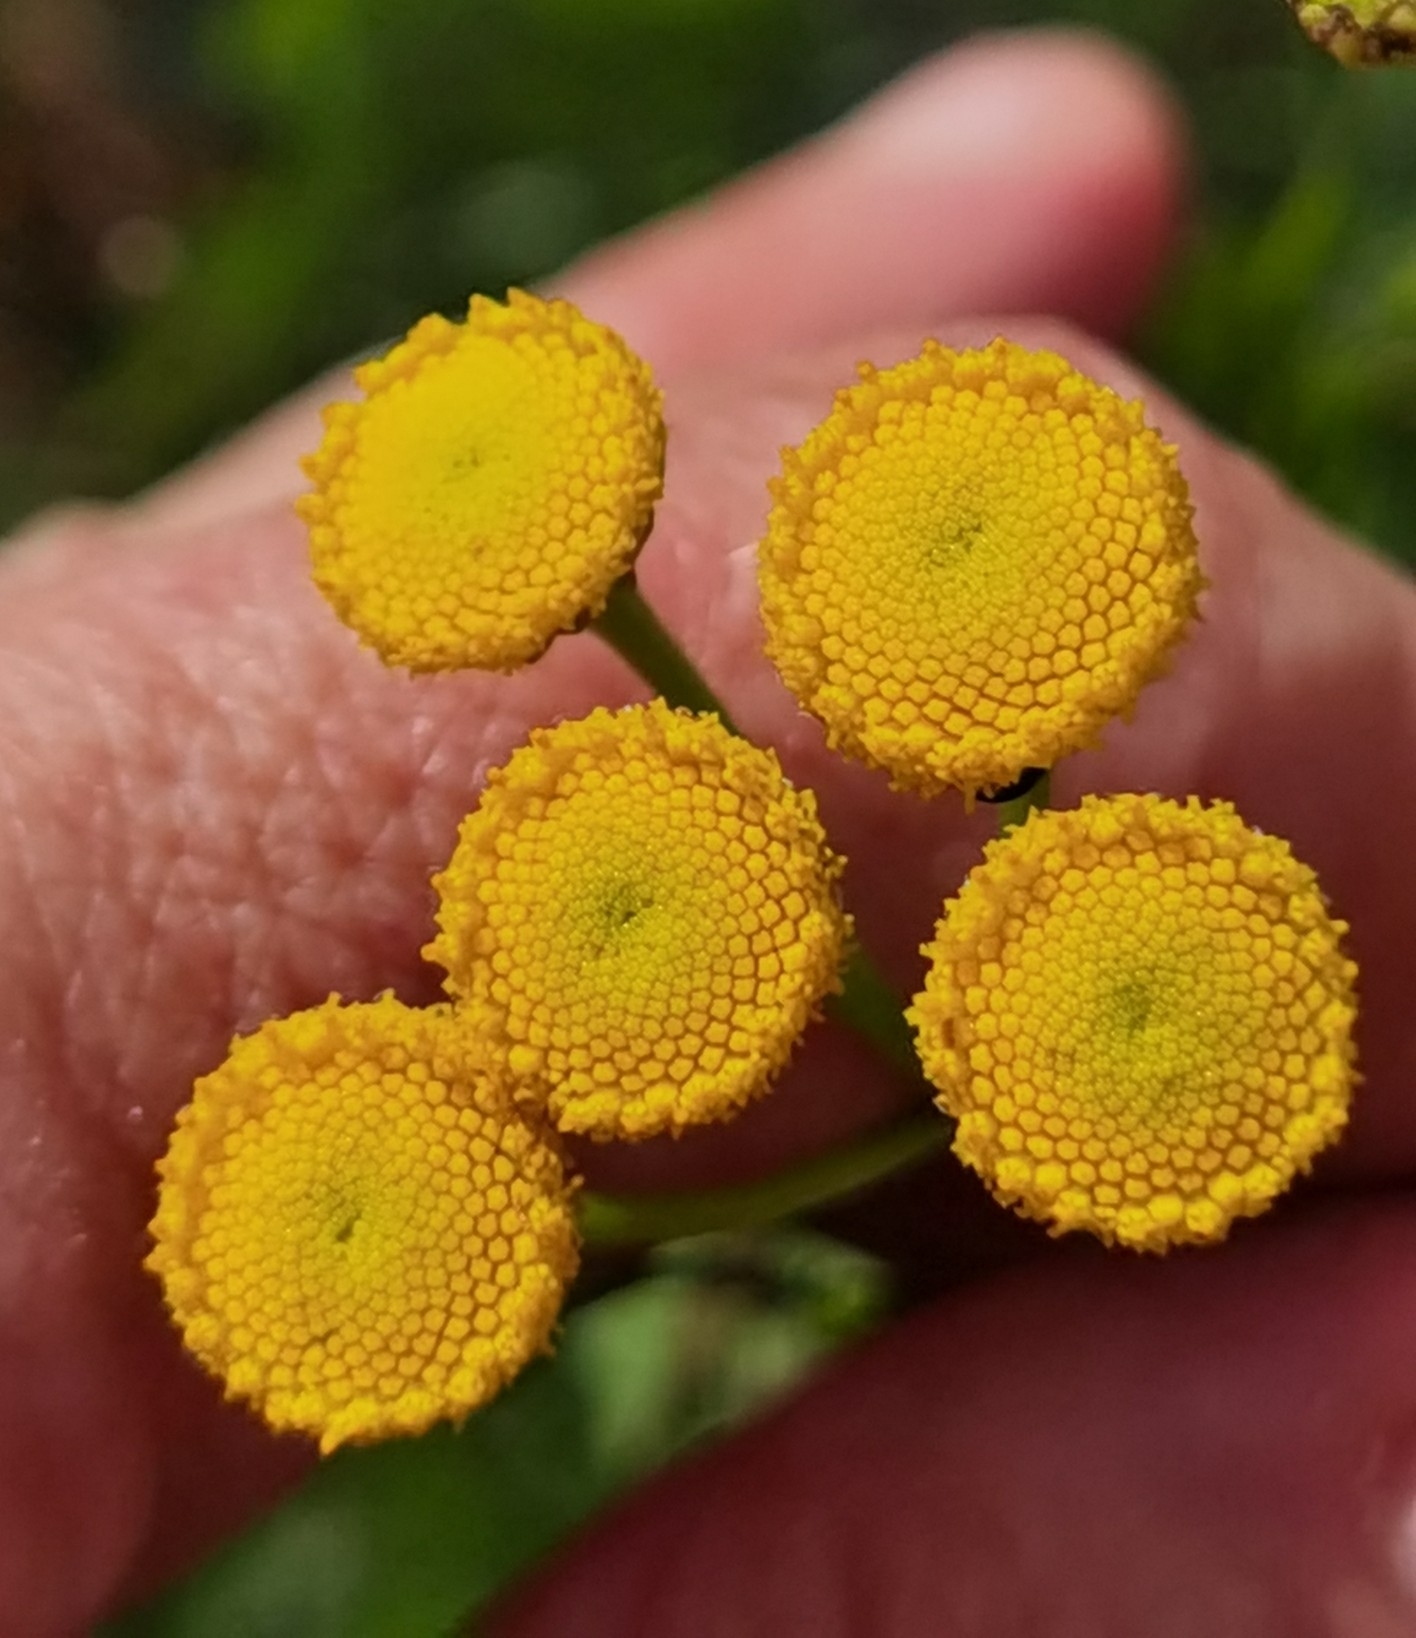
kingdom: Plantae
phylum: Tracheophyta
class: Magnoliopsida
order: Asterales
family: Asteraceae
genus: Tanacetum
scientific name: Tanacetum vulgare
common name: Common tansy
